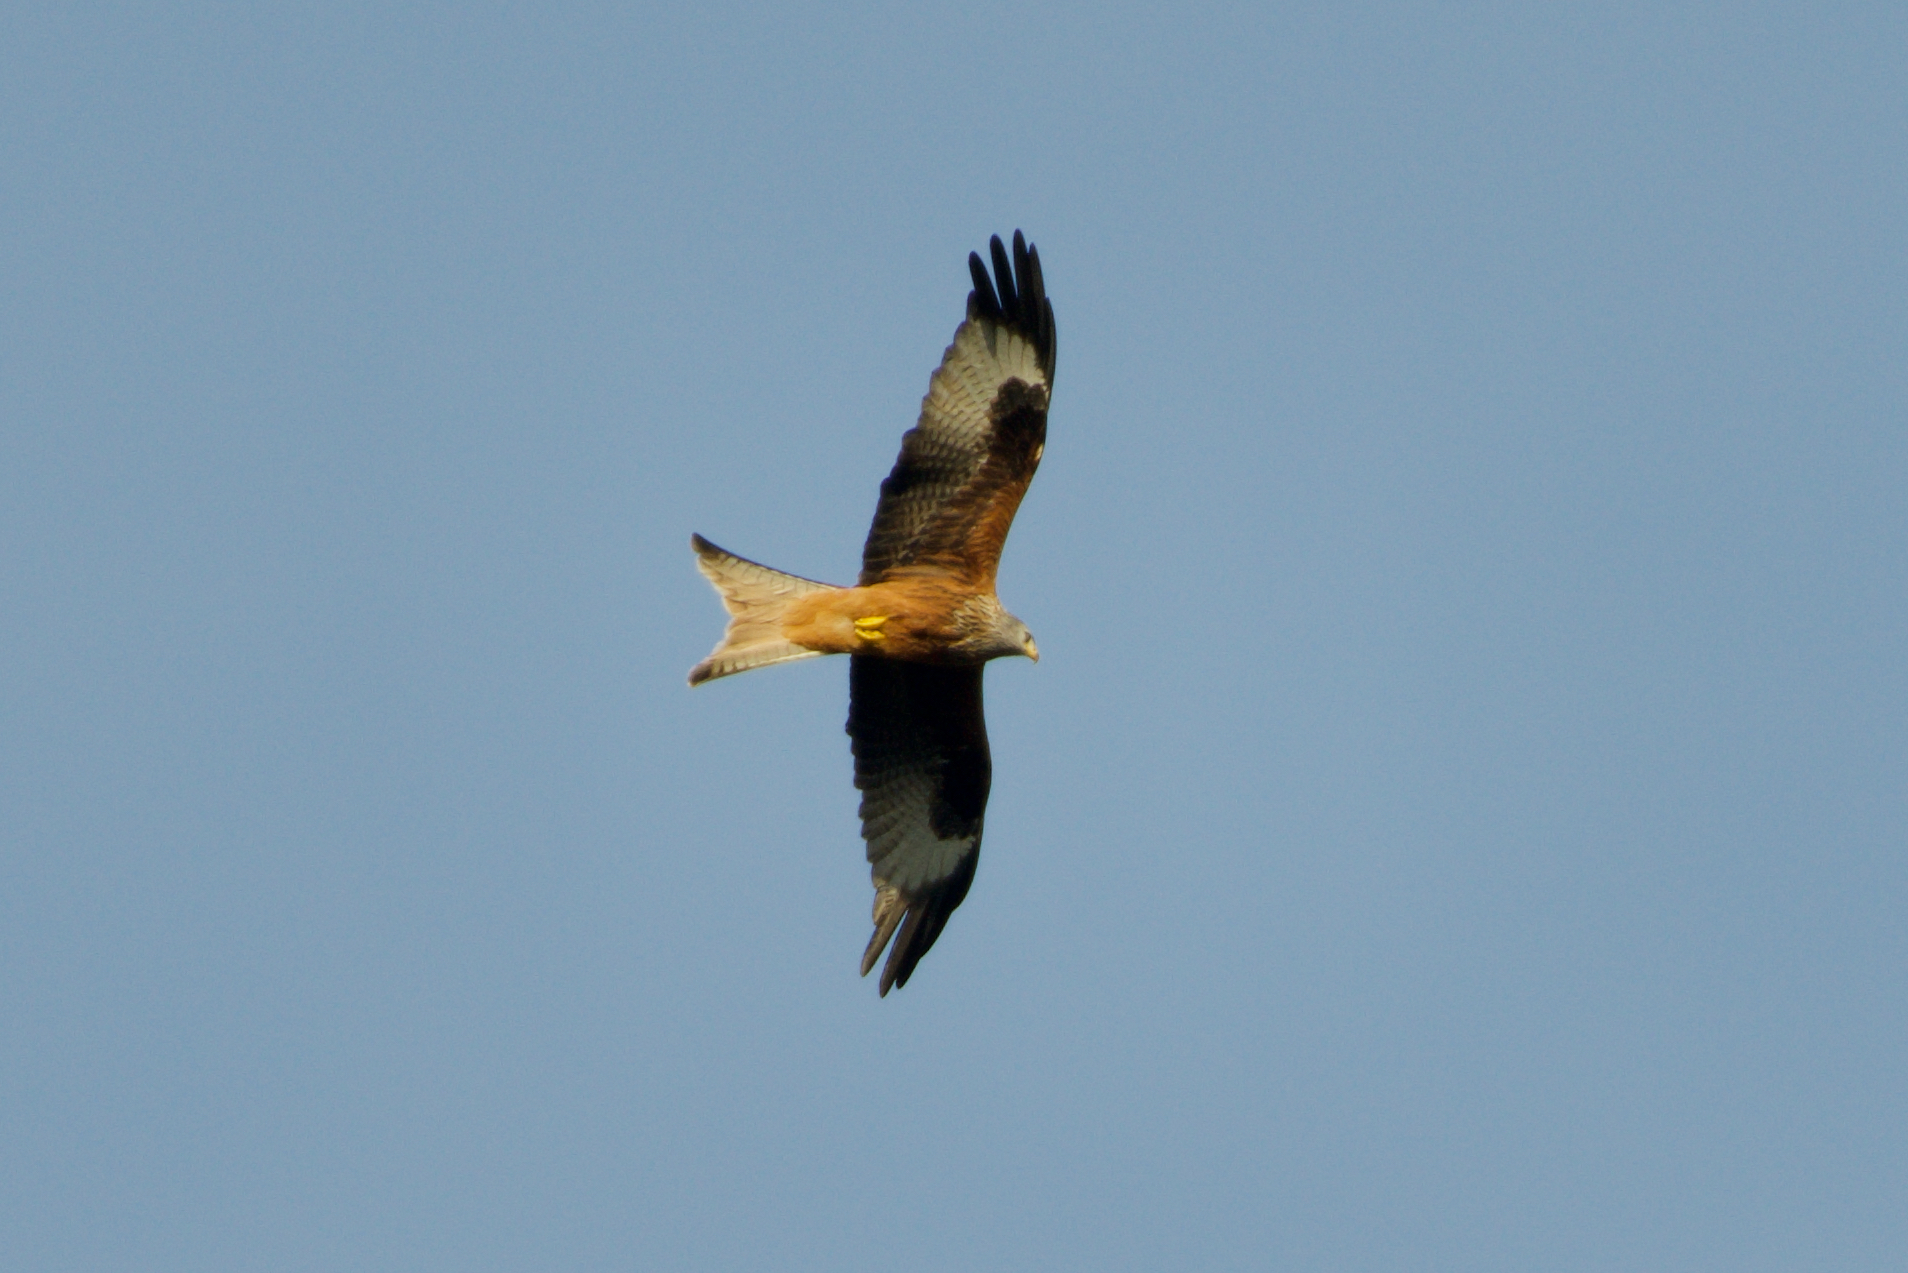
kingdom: Animalia
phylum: Chordata
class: Aves
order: Accipitriformes
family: Accipitridae
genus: Milvus
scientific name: Milvus milvus
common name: Red kite
